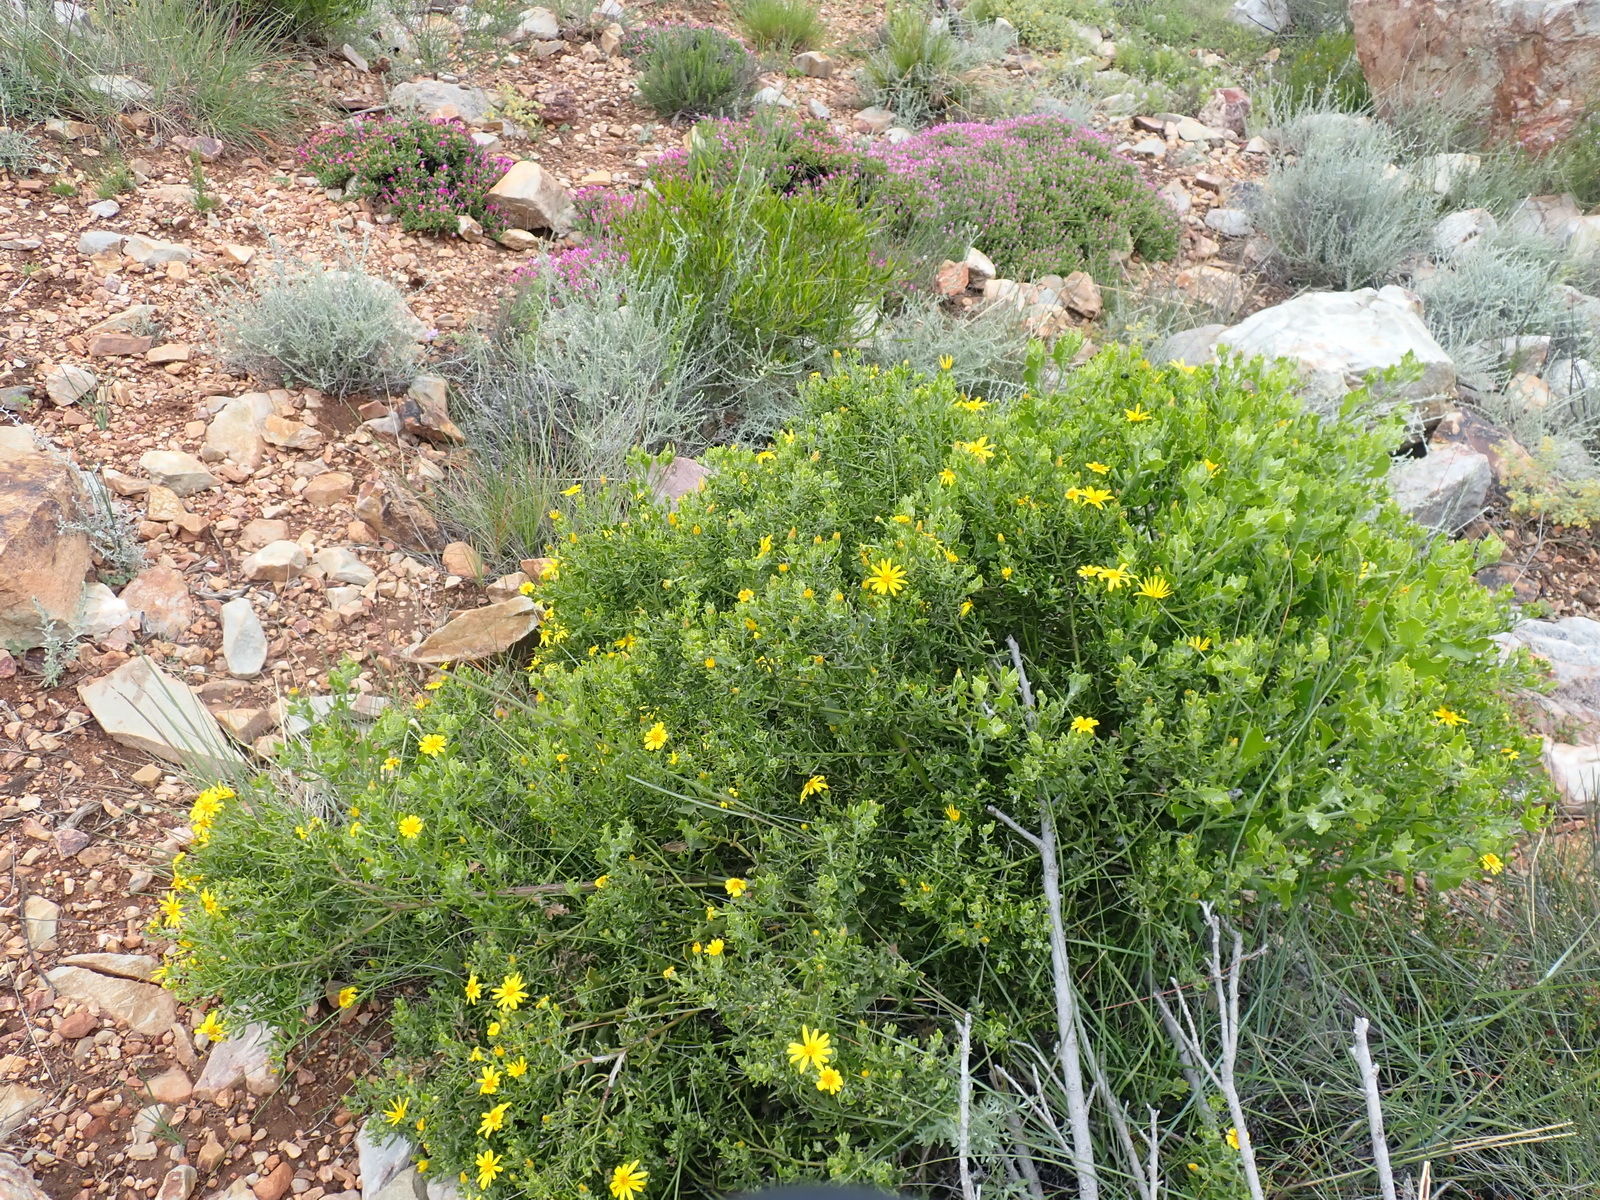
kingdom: Plantae
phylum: Tracheophyta
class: Magnoliopsida
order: Asterales
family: Asteraceae
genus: Osteospermum
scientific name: Osteospermum moniliferum
